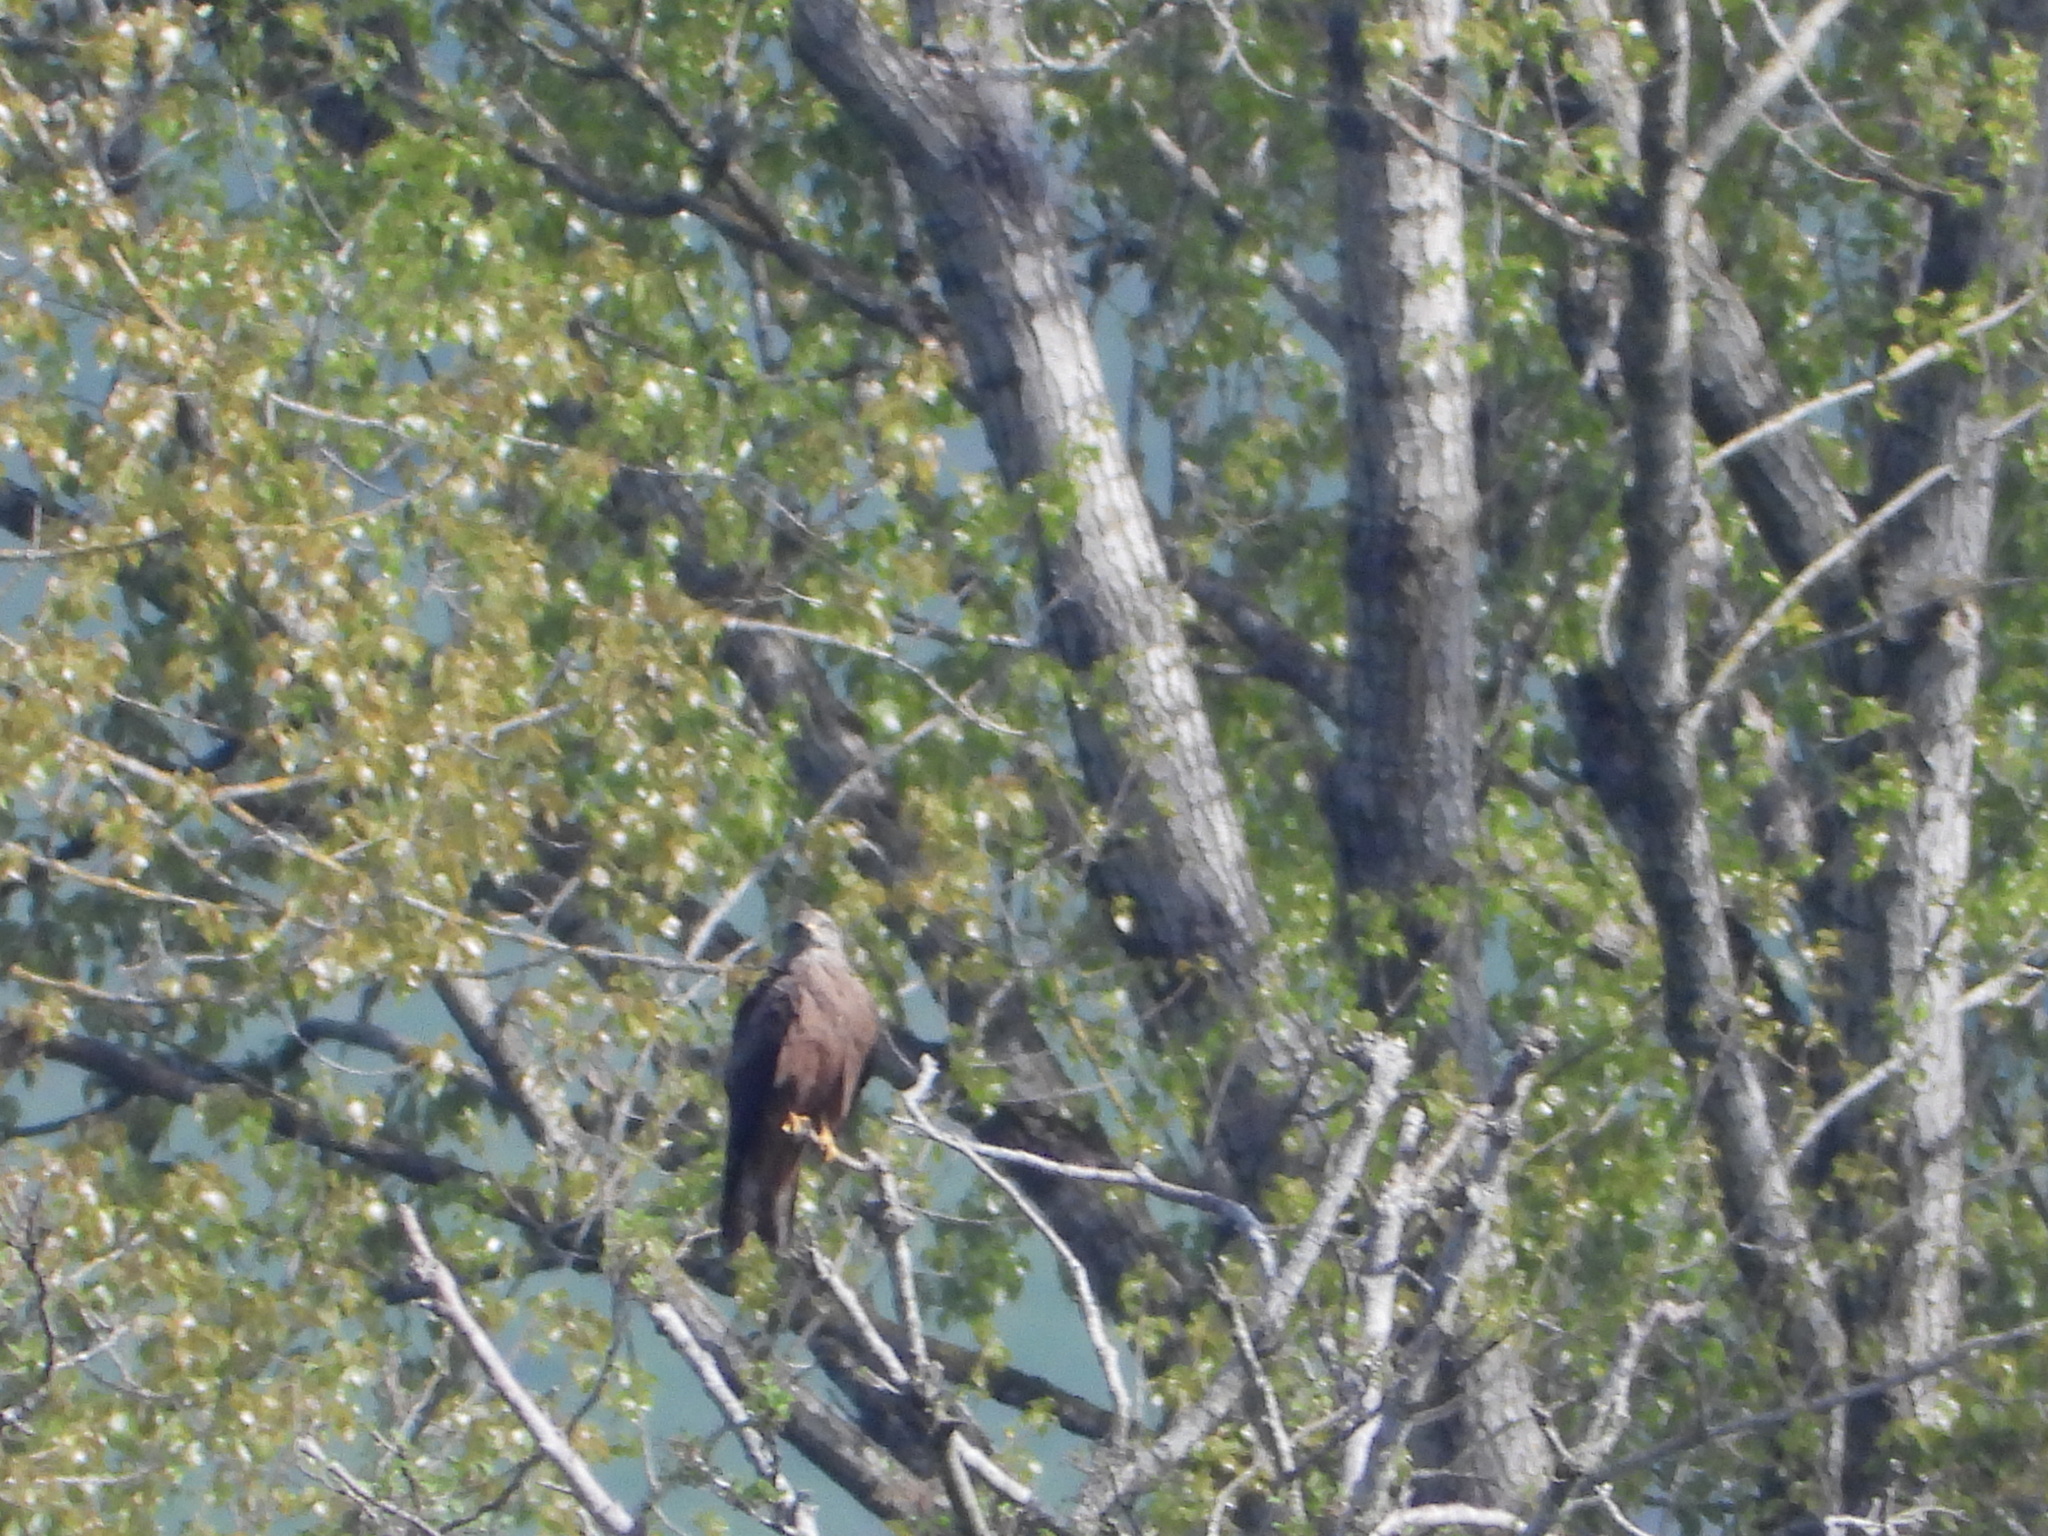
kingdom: Animalia
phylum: Chordata
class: Aves
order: Accipitriformes
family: Accipitridae
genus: Milvus
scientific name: Milvus migrans
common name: Black kite
